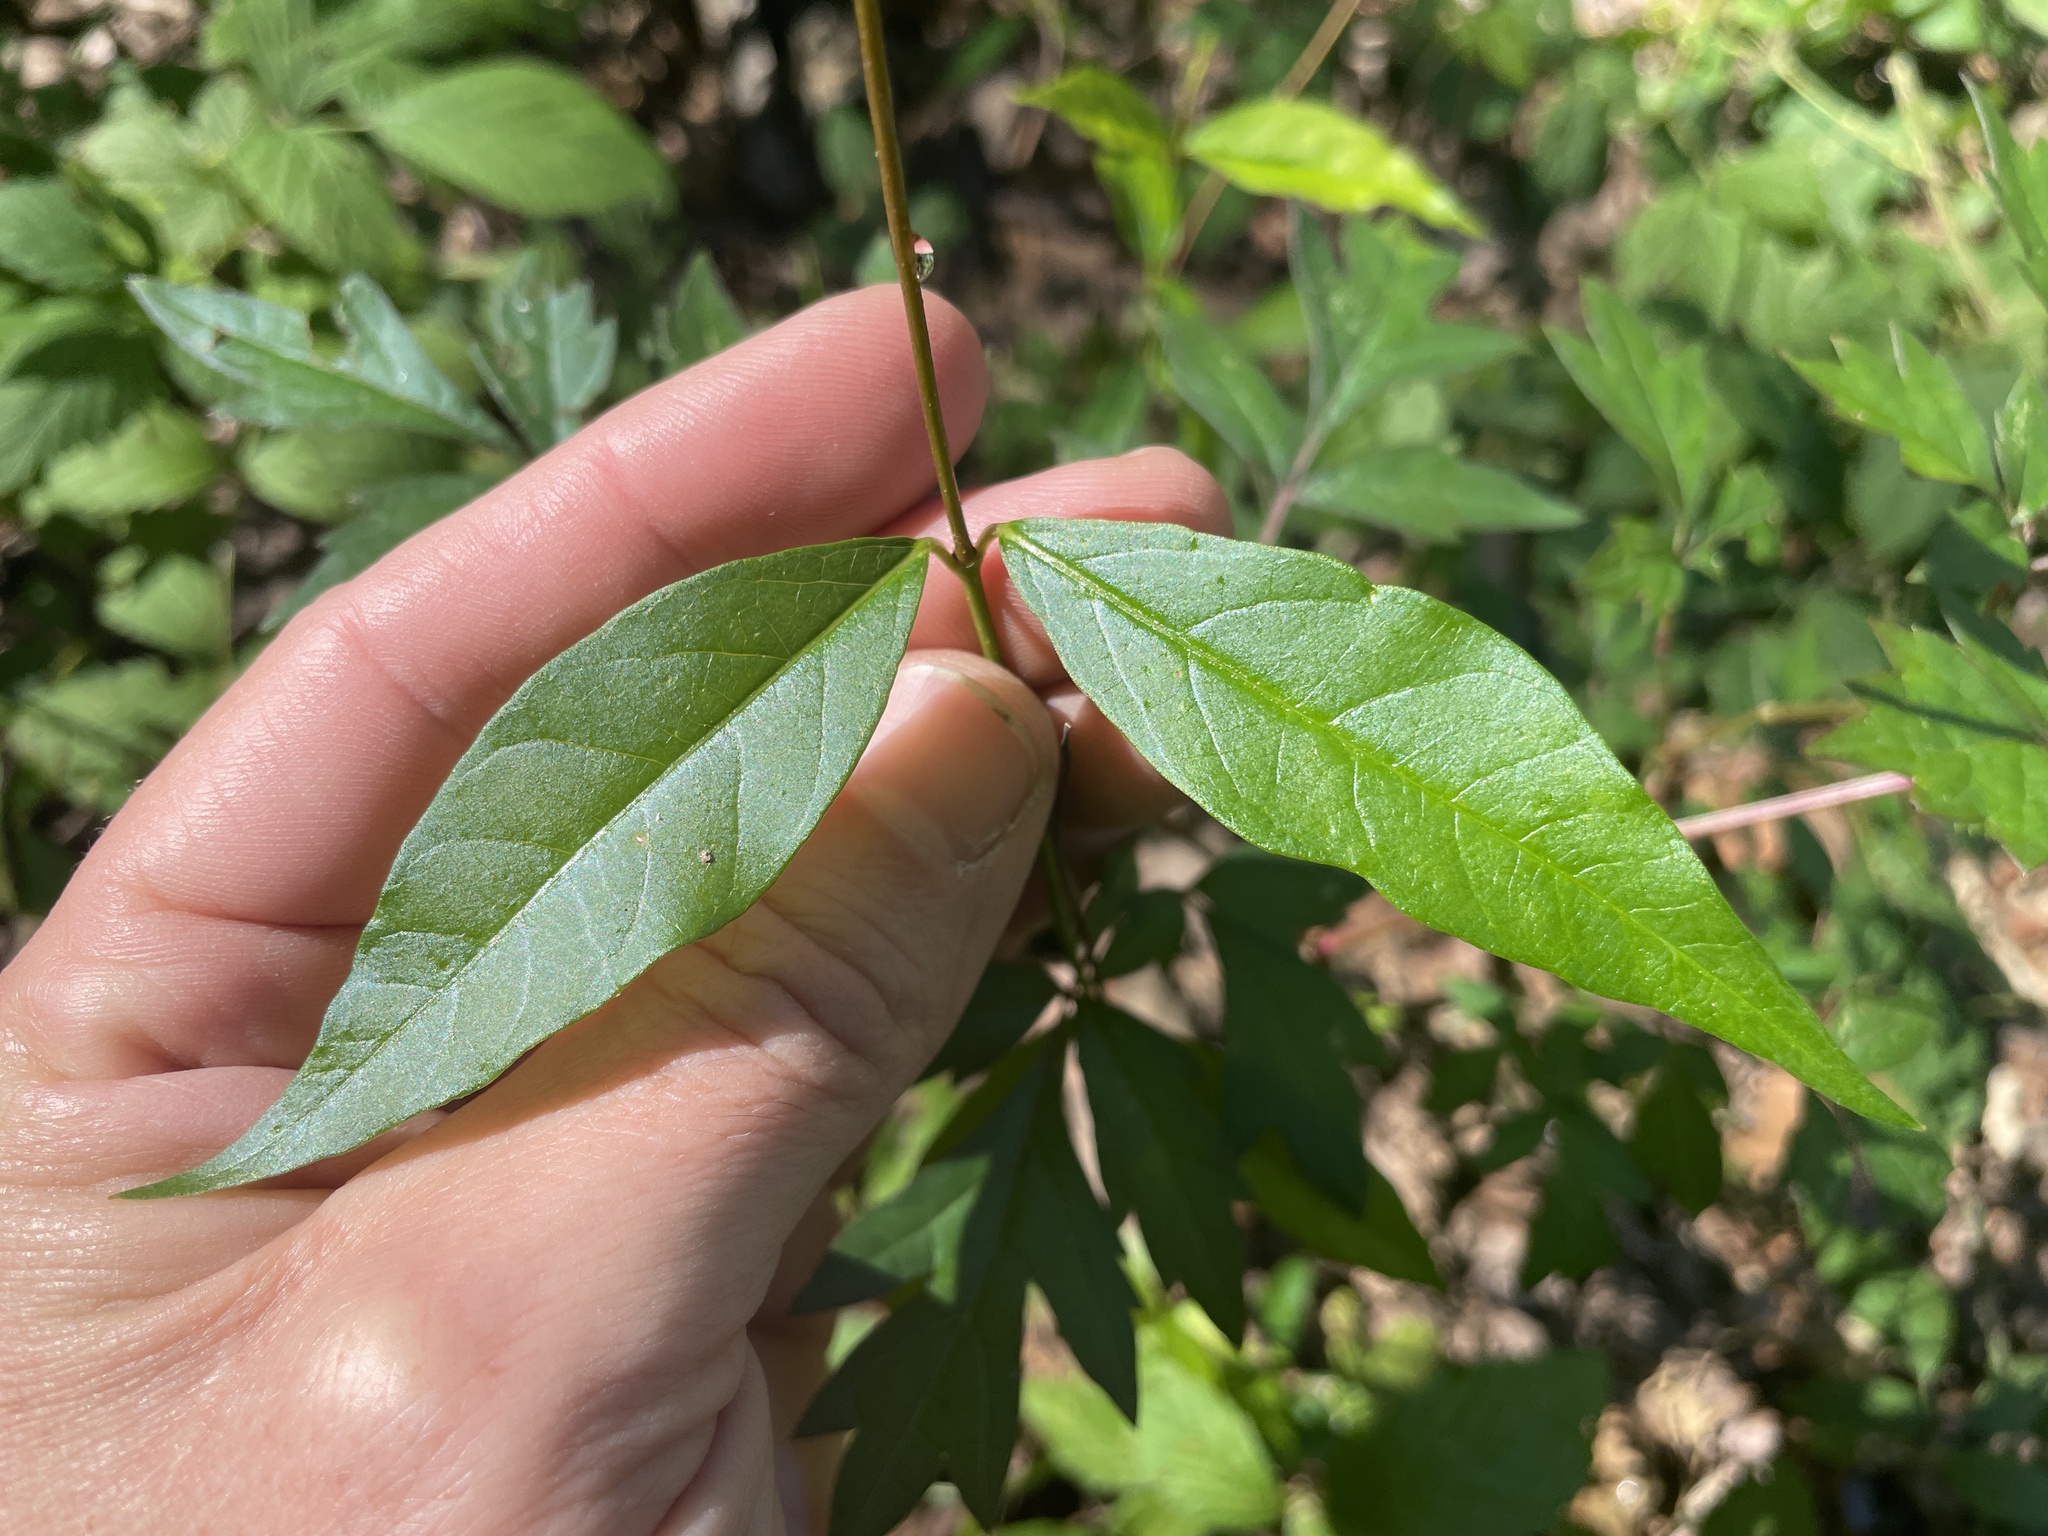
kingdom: Plantae
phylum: Tracheophyta
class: Magnoliopsida
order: Gentianales
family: Apocynaceae
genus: Thyrsanthella
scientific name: Thyrsanthella difformis
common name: Climbing dogbane
